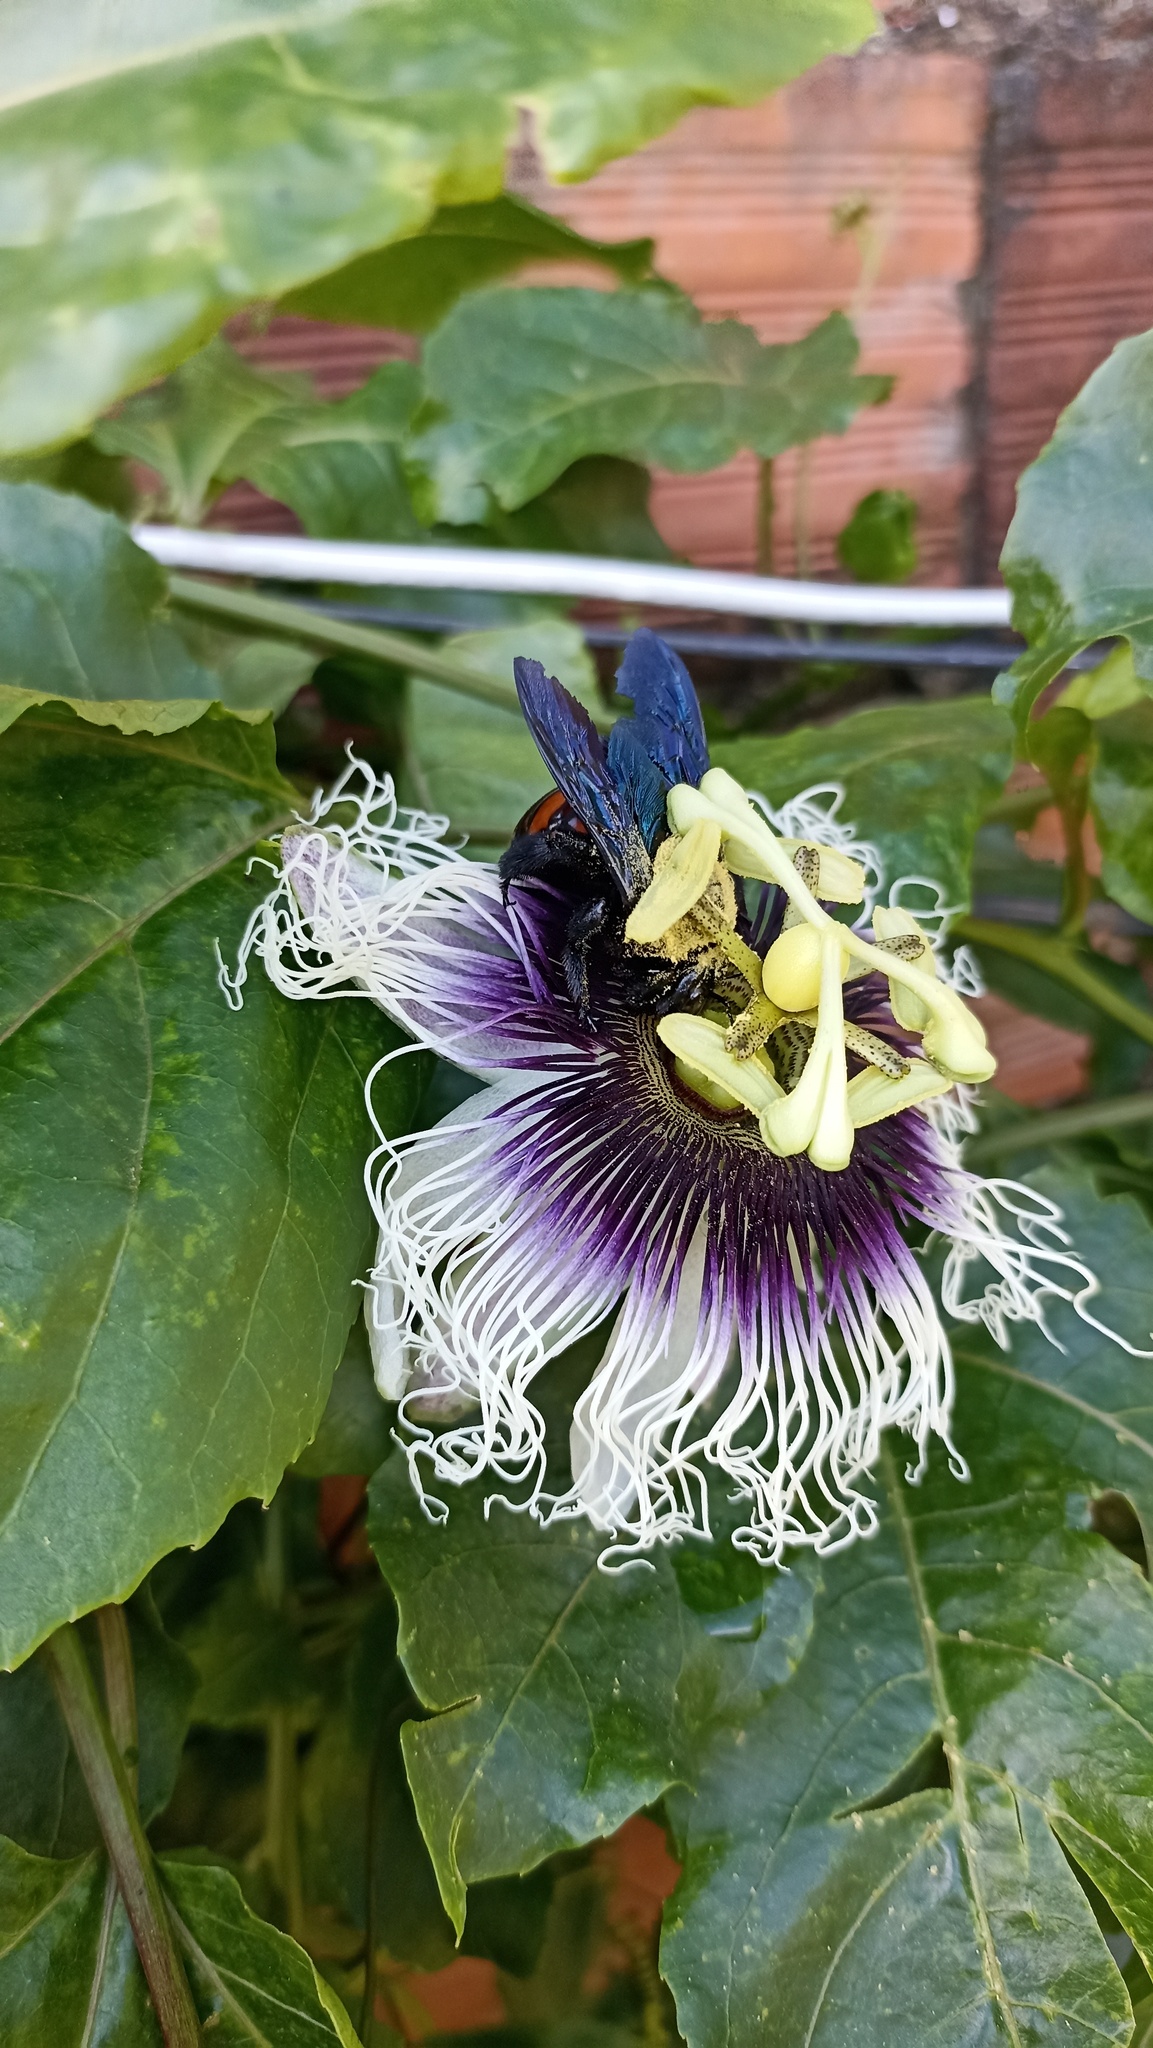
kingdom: Animalia
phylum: Arthropoda
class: Insecta
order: Hymenoptera
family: Apidae
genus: Xylocopa
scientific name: Xylocopa frontalis
